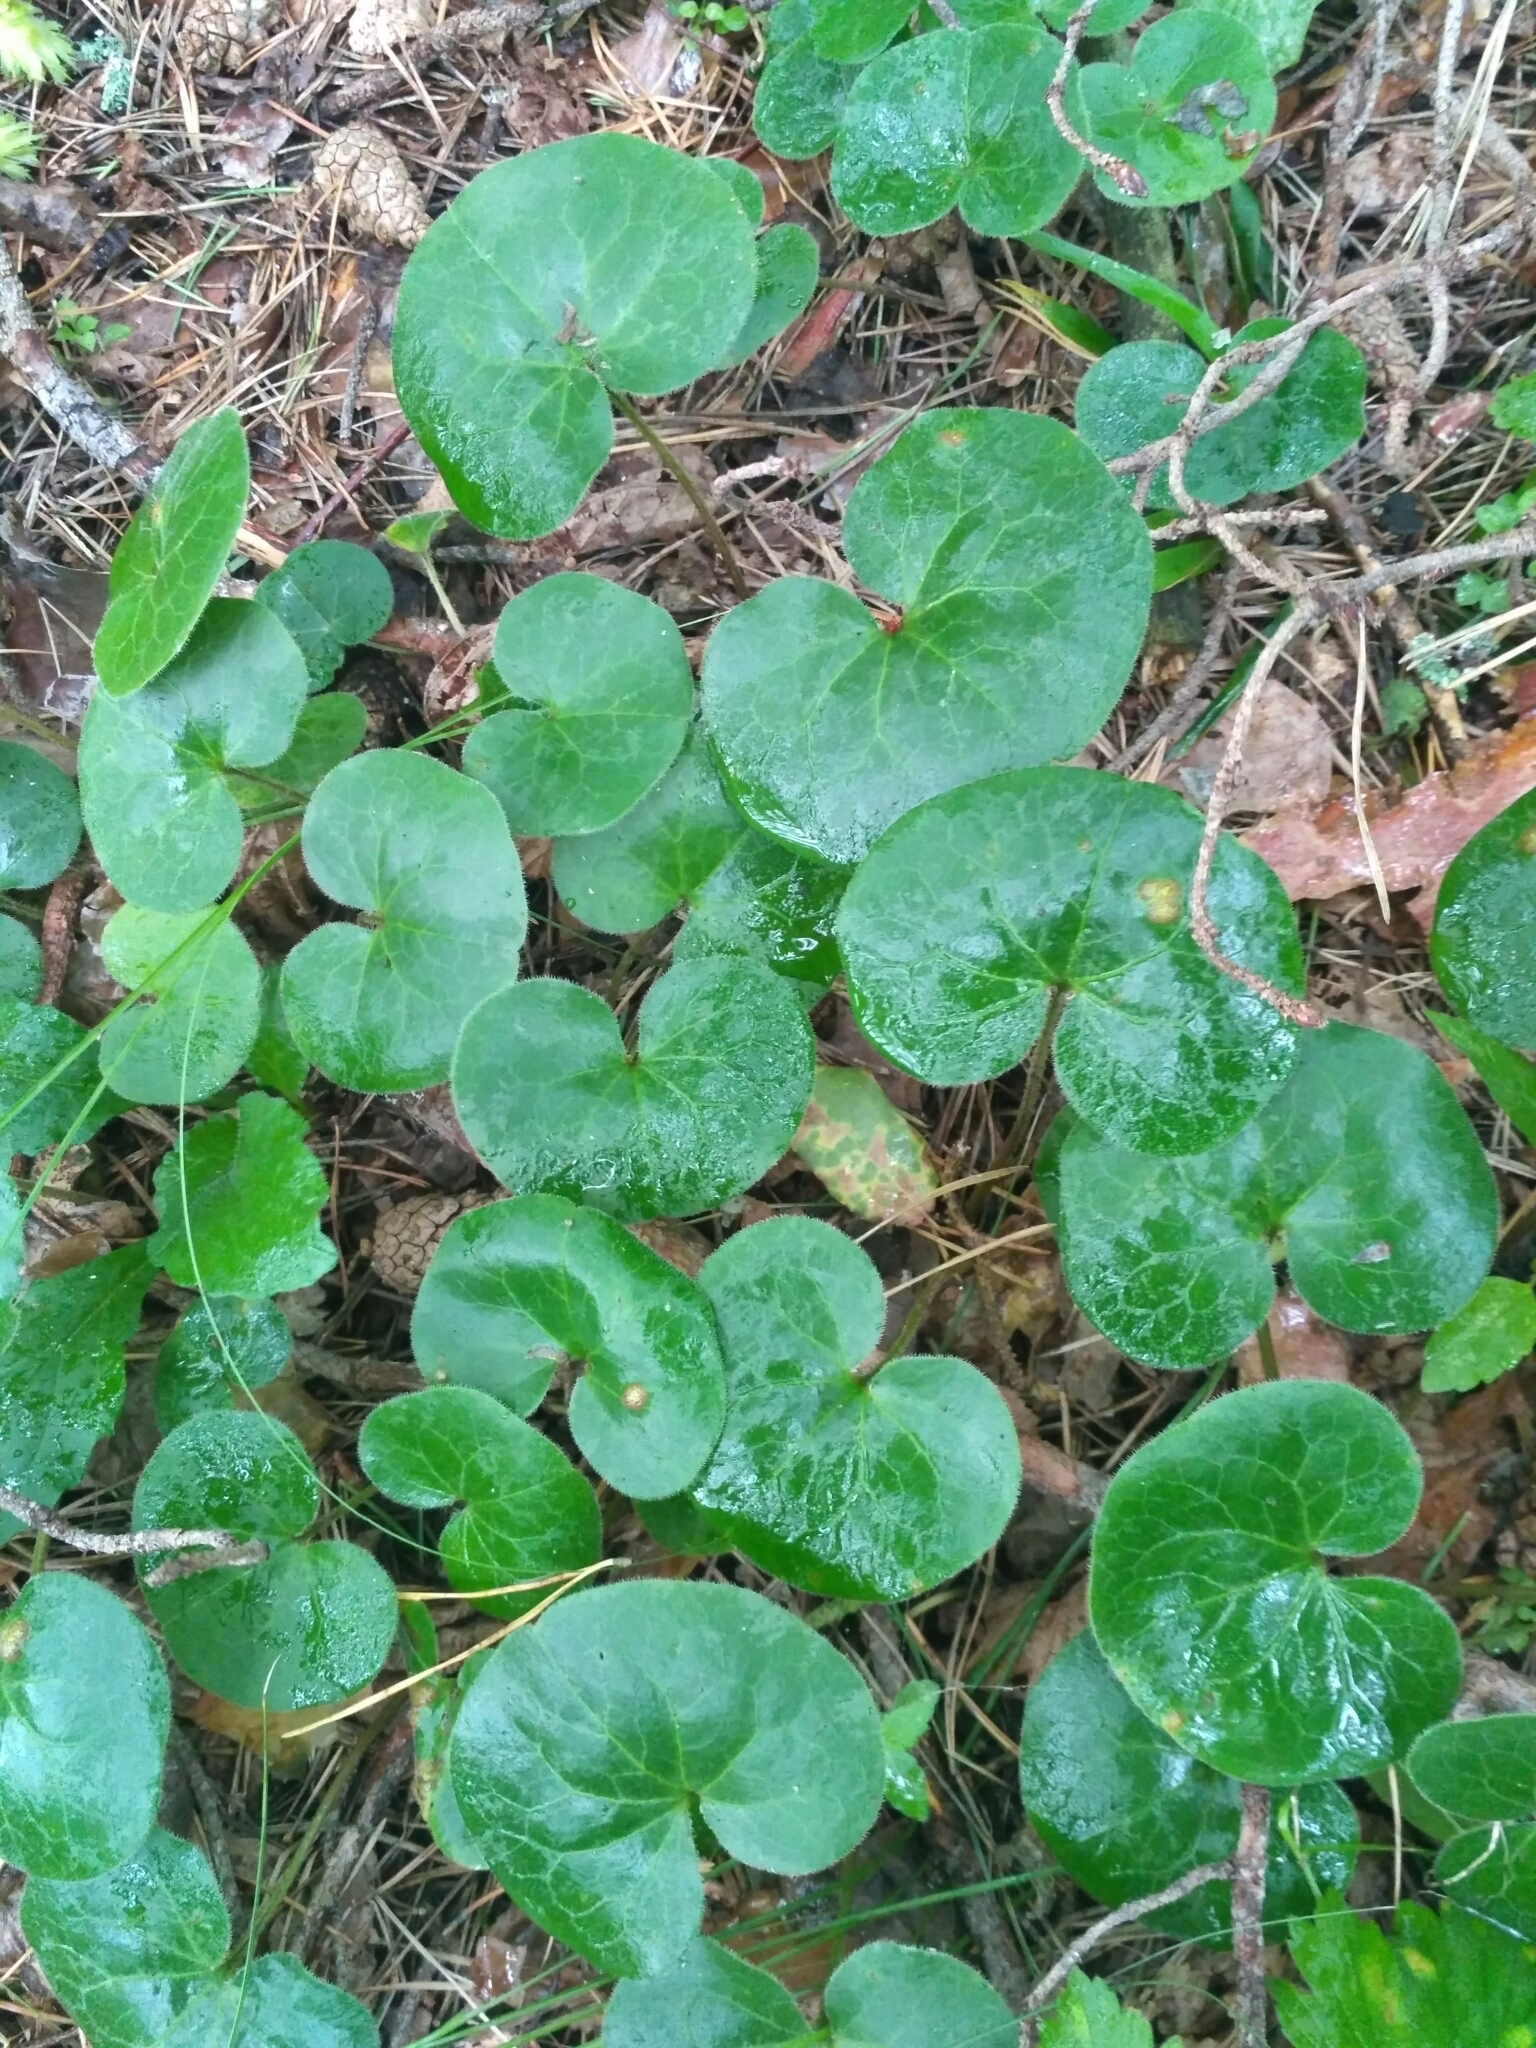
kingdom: Plantae
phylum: Tracheophyta
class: Magnoliopsida
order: Piperales
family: Aristolochiaceae
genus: Asarum
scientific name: Asarum europaeum
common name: Asarabacca
